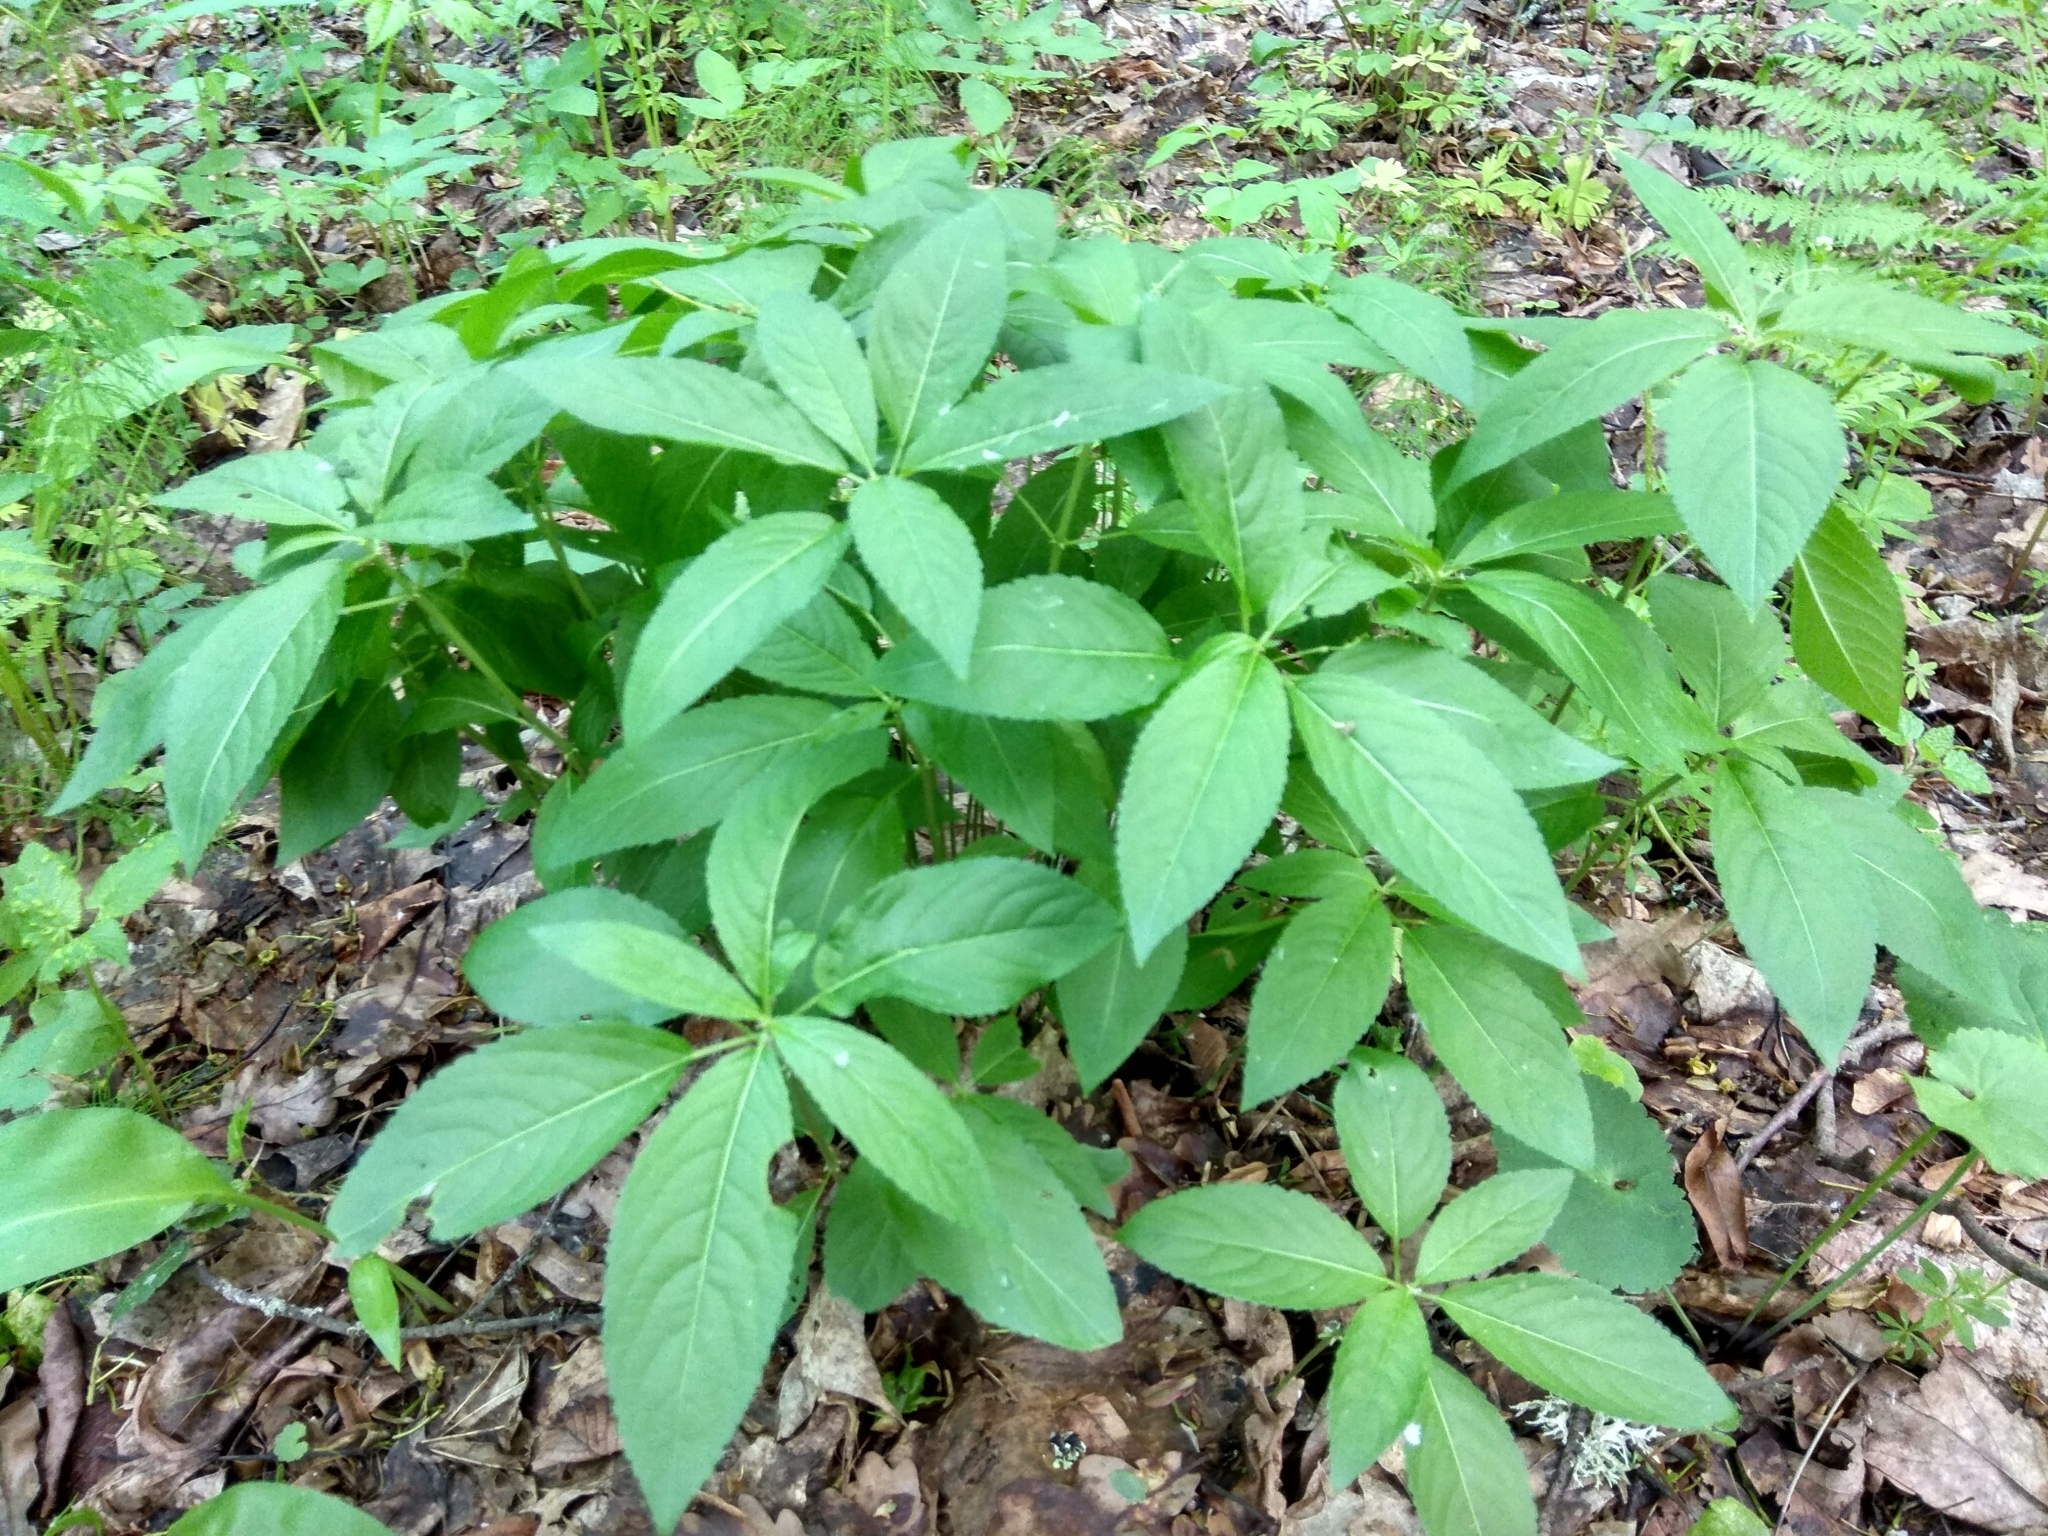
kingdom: Plantae
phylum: Tracheophyta
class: Magnoliopsida
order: Malpighiales
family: Euphorbiaceae
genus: Mercurialis
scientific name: Mercurialis perennis
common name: Dog mercury
